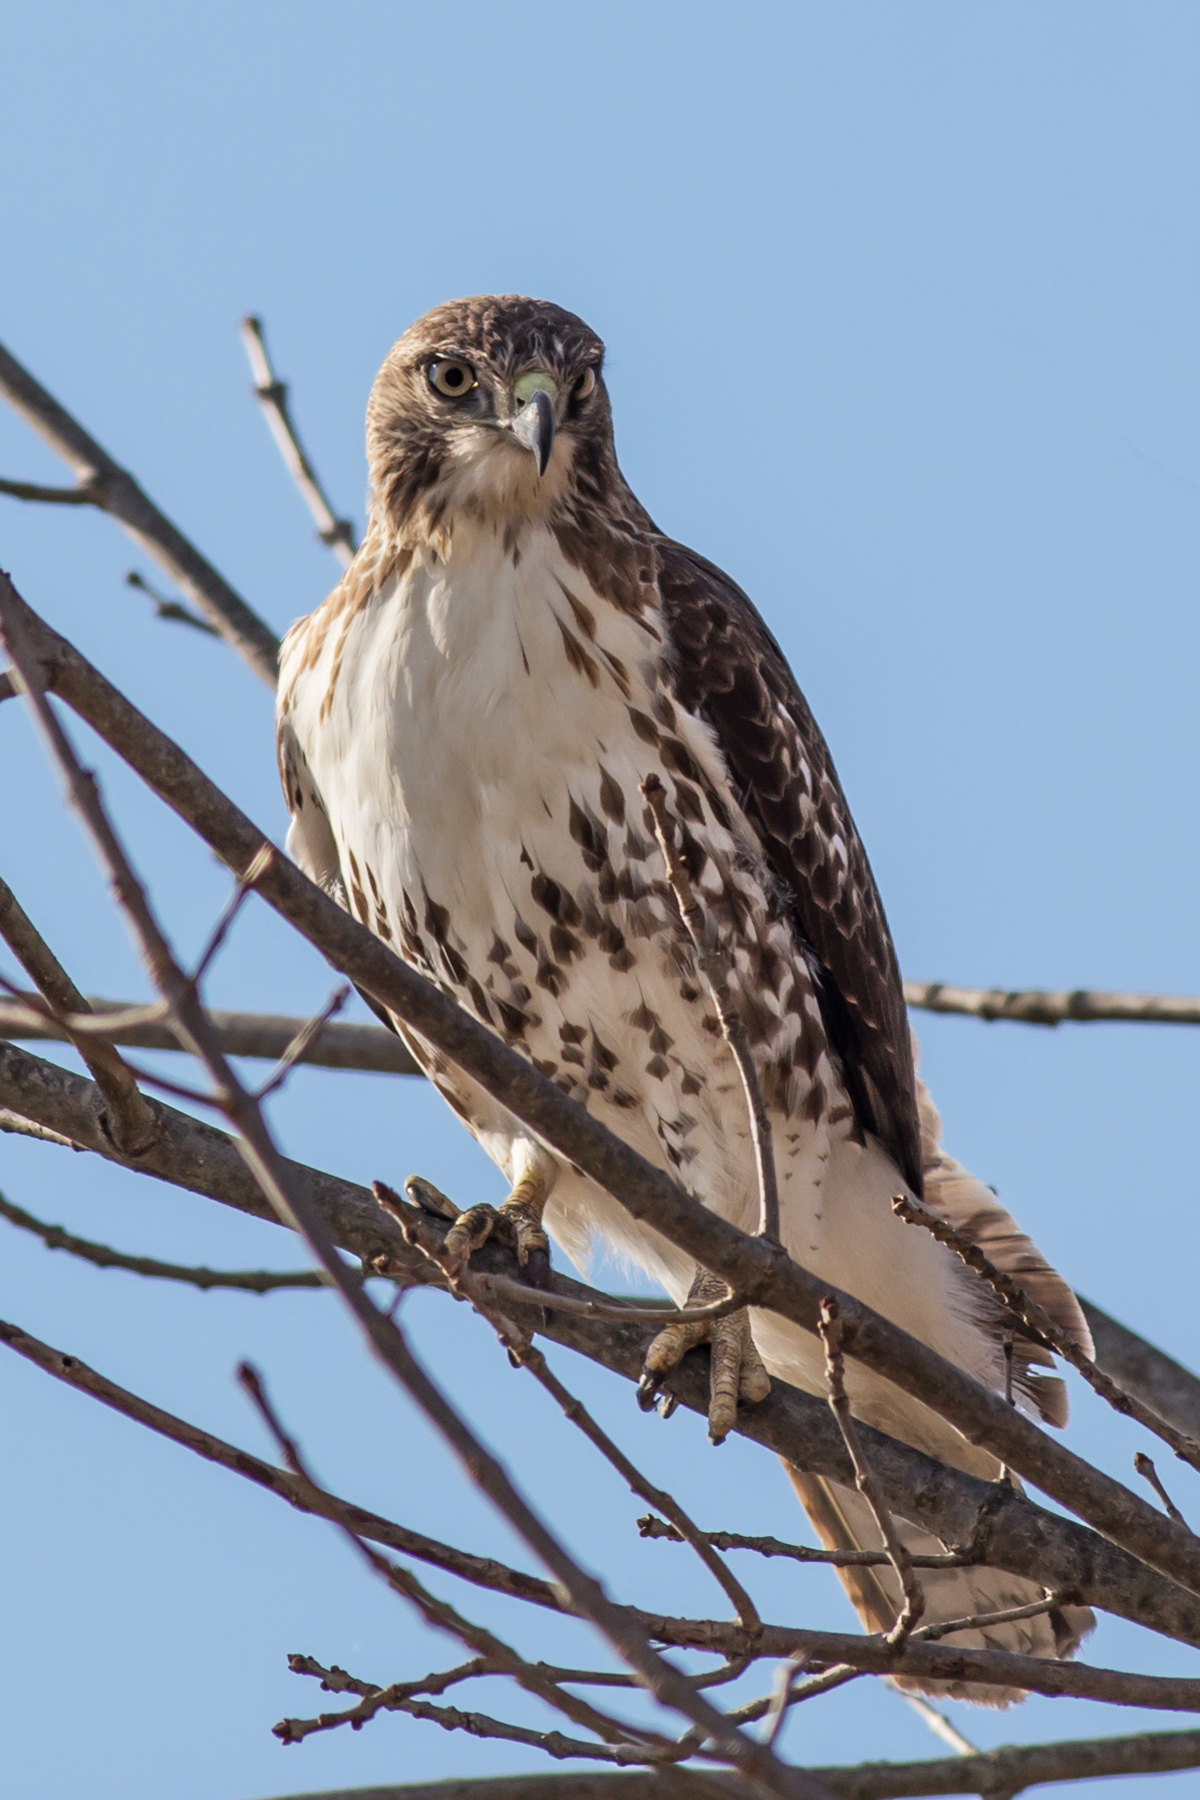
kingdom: Animalia
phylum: Chordata
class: Aves
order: Accipitriformes
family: Accipitridae
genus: Buteo
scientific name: Buteo jamaicensis
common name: Red-tailed hawk
